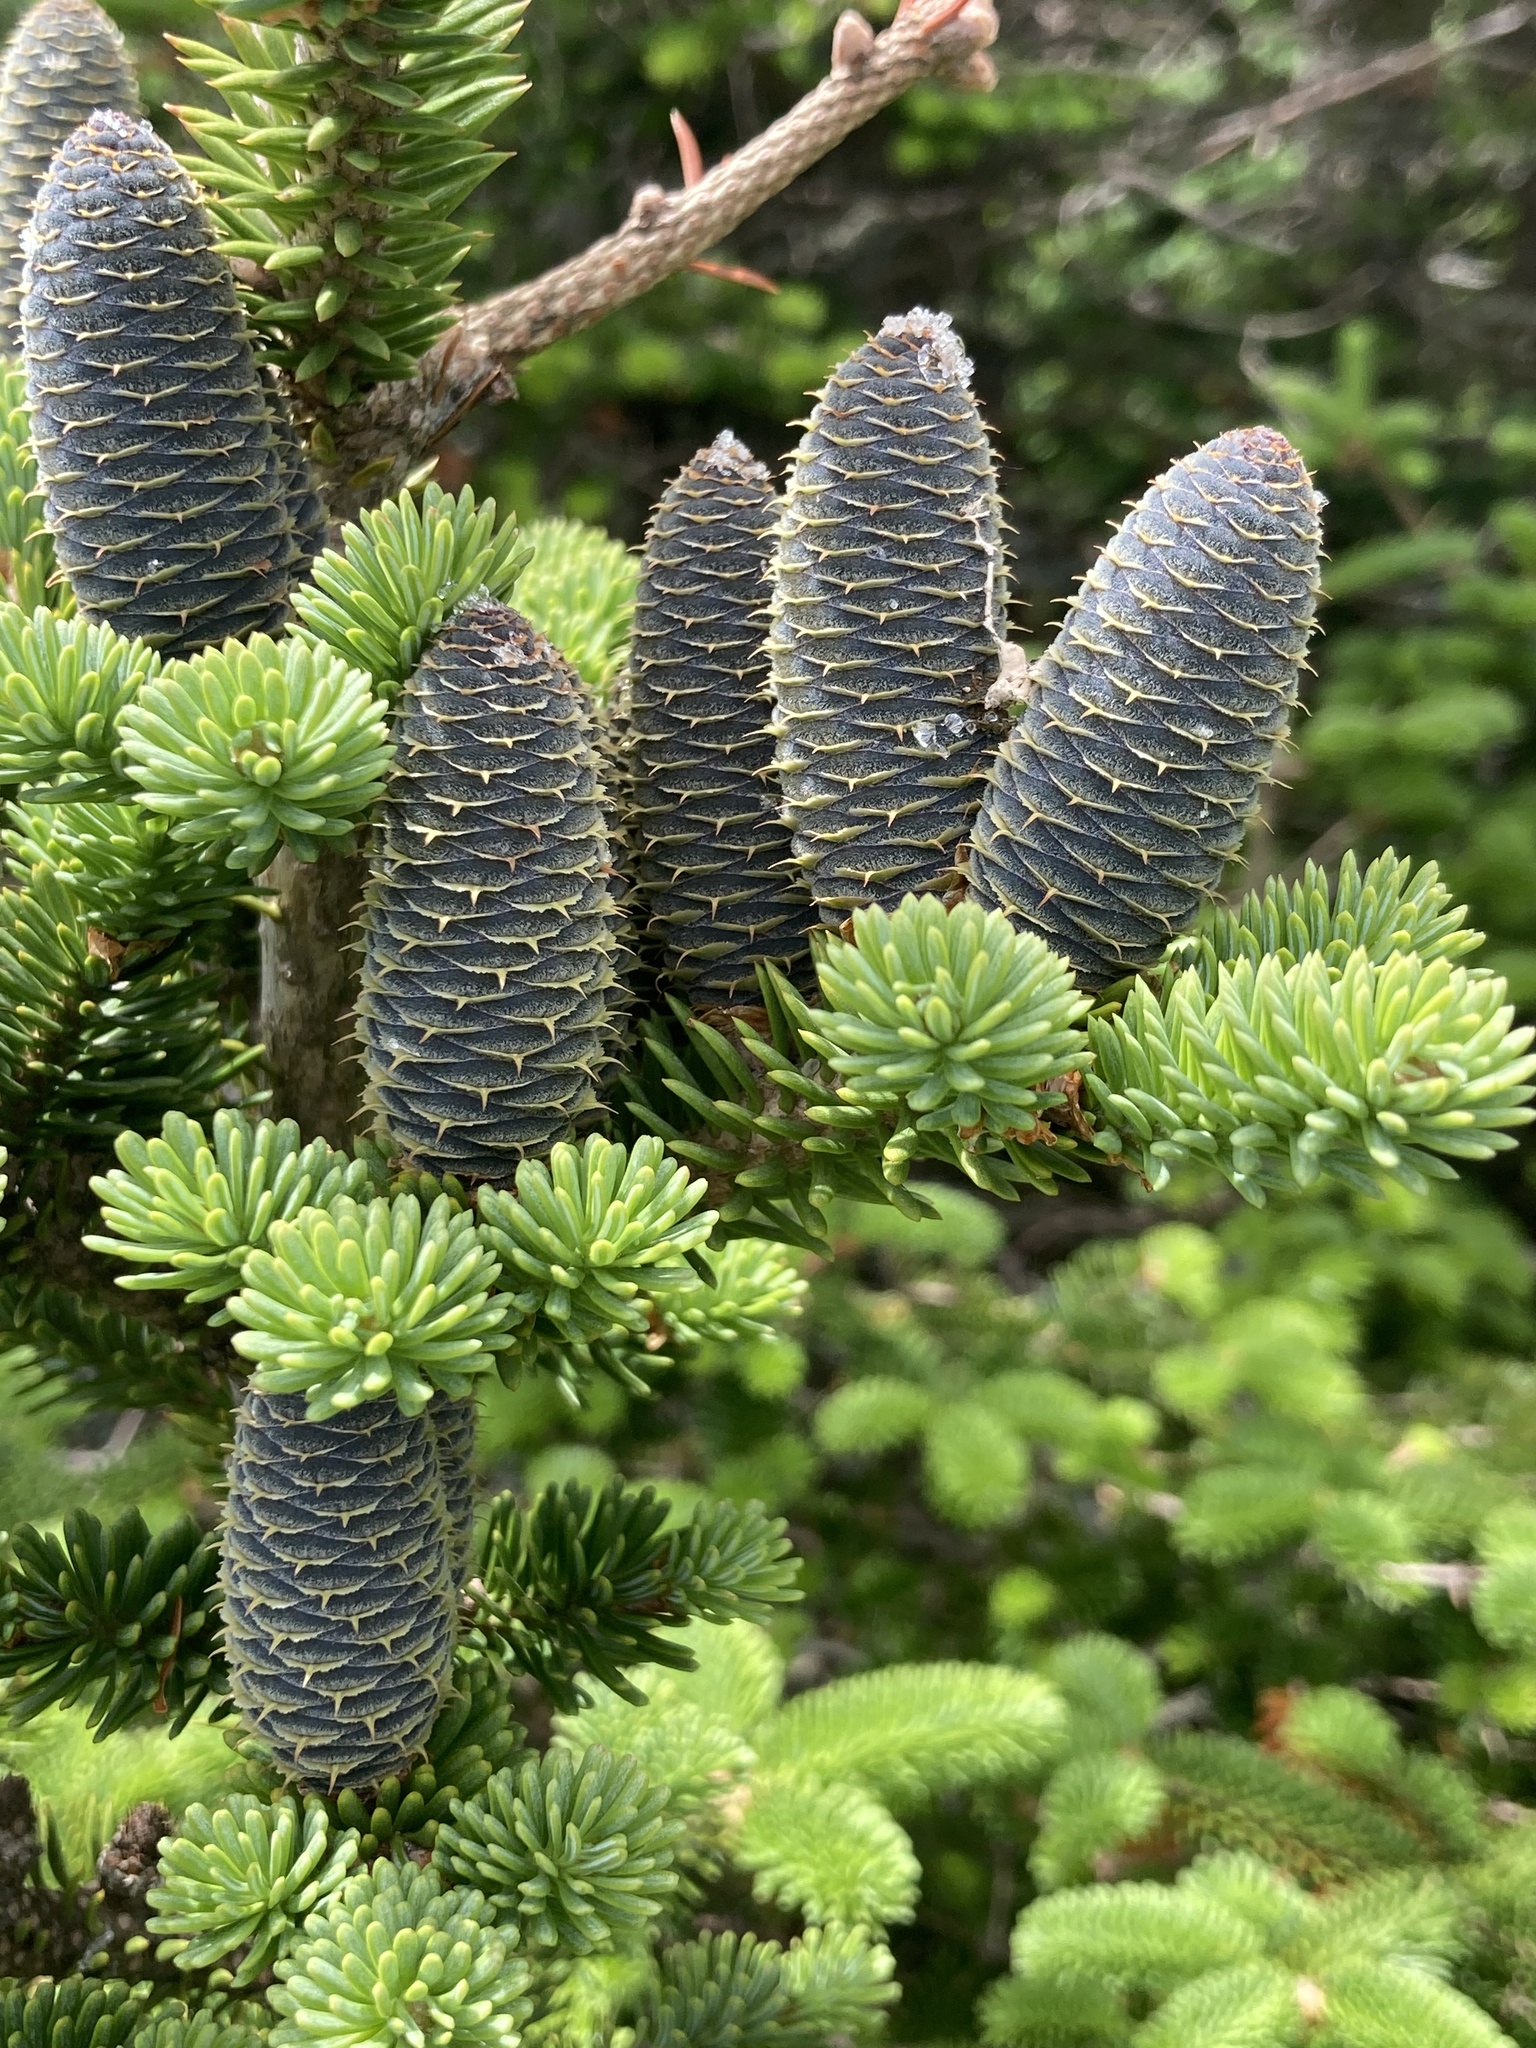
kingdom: Plantae
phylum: Tracheophyta
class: Pinopsida
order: Pinales
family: Pinaceae
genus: Abies
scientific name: Abies balsamea
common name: Balsam fir
